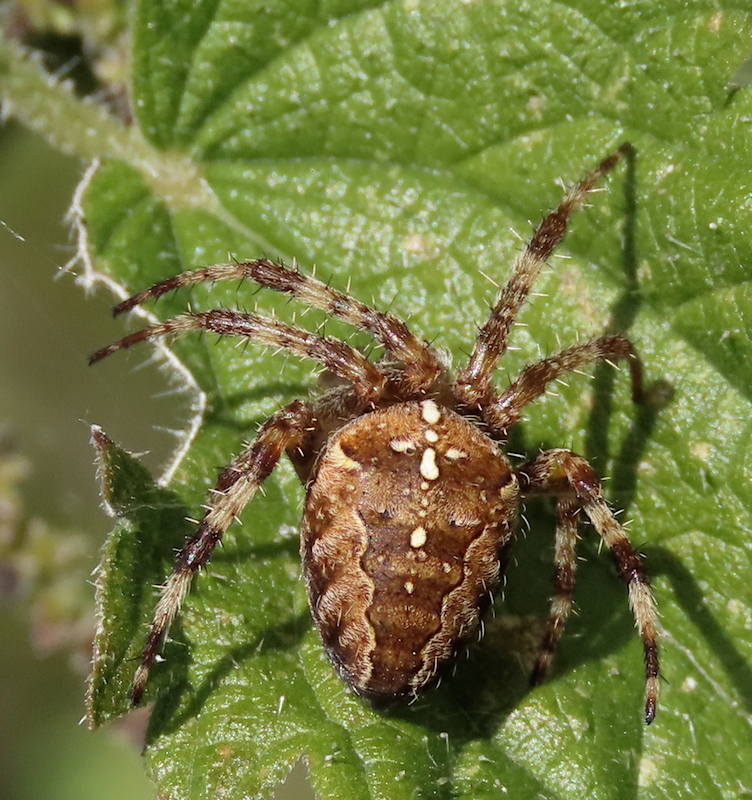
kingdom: Animalia
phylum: Arthropoda
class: Arachnida
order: Araneae
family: Araneidae
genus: Araneus
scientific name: Araneus diadematus
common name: Cross orbweaver
